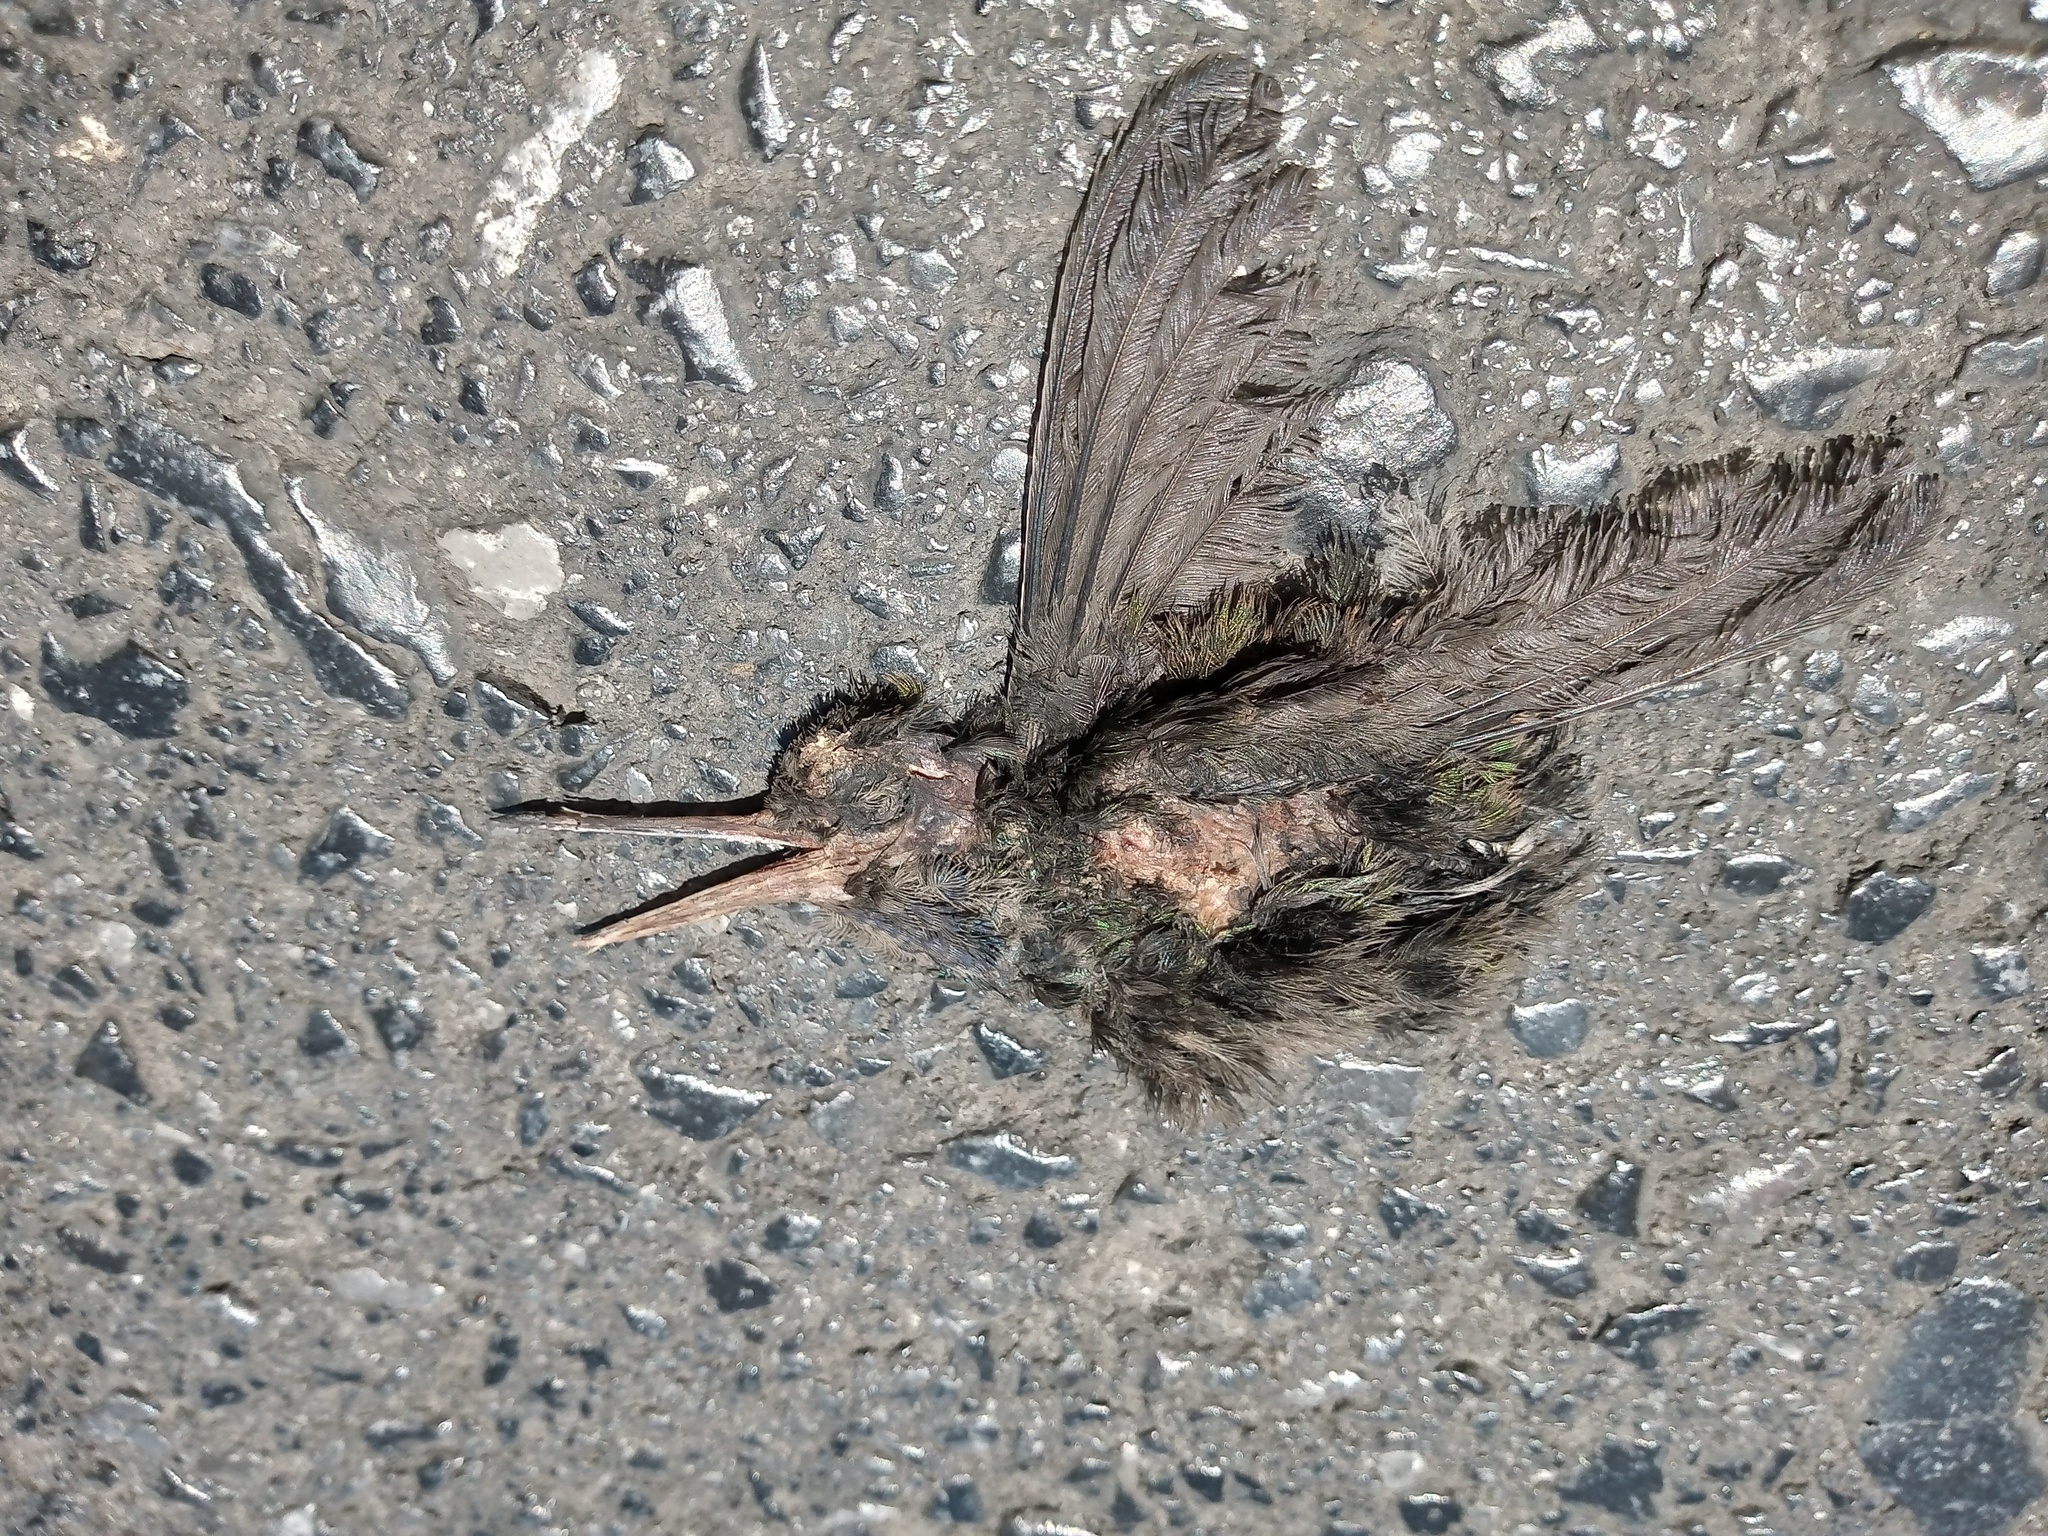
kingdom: Animalia
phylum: Chordata
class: Aves
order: Apodiformes
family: Trochilidae
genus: Cynanthus
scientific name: Cynanthus latirostris
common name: Broad-billed hummingbird
